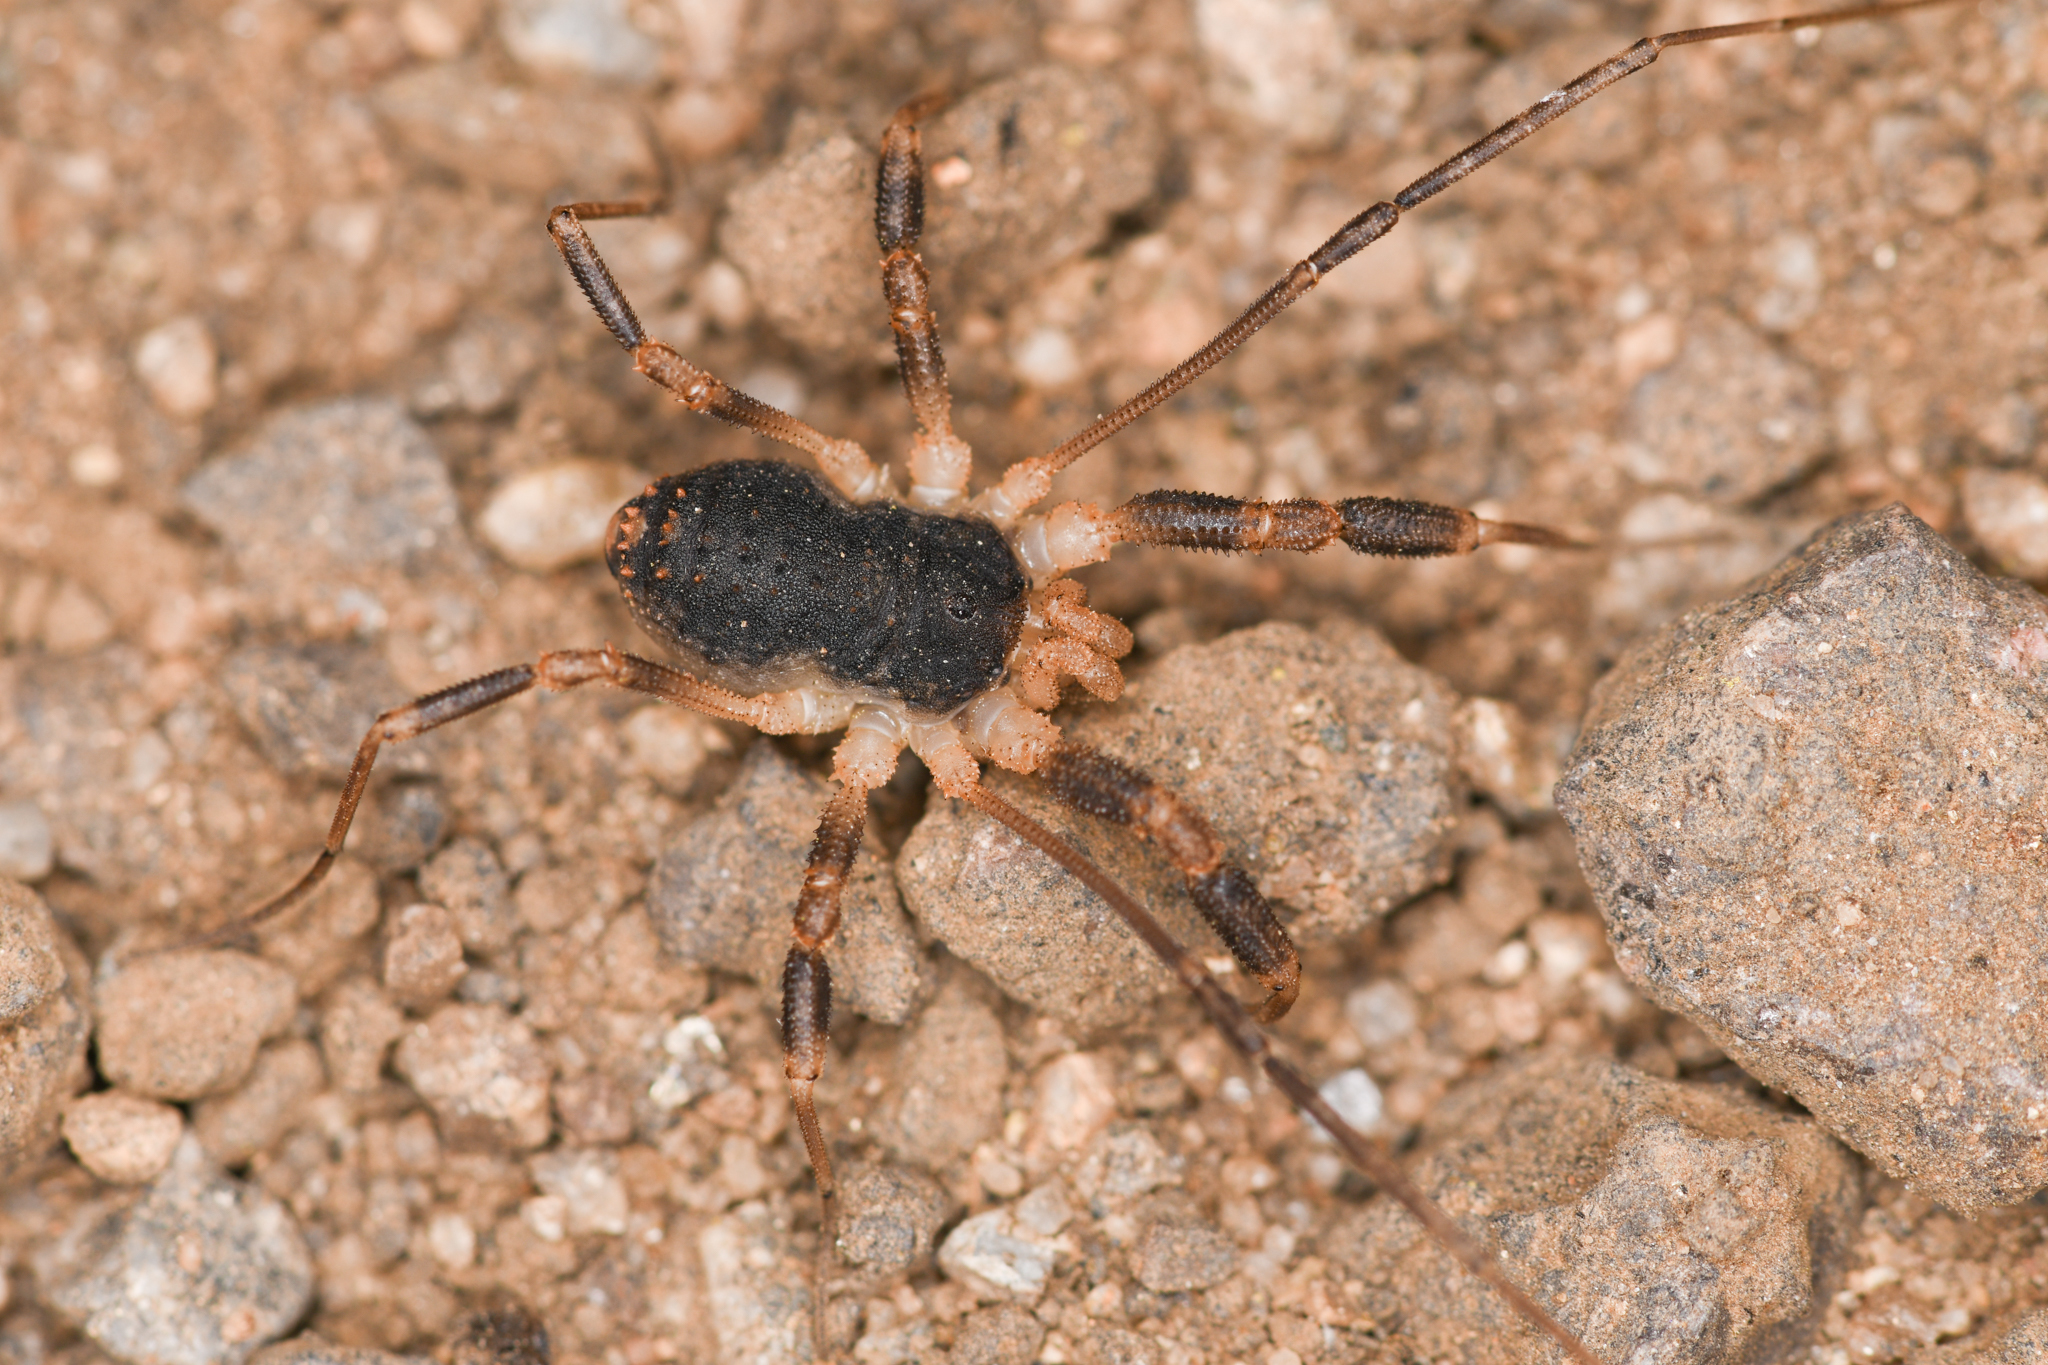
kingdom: Animalia
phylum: Arthropoda
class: Arachnida
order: Opiliones
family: Globipedidae
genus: Dalquestia
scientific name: Dalquestia rugosa
